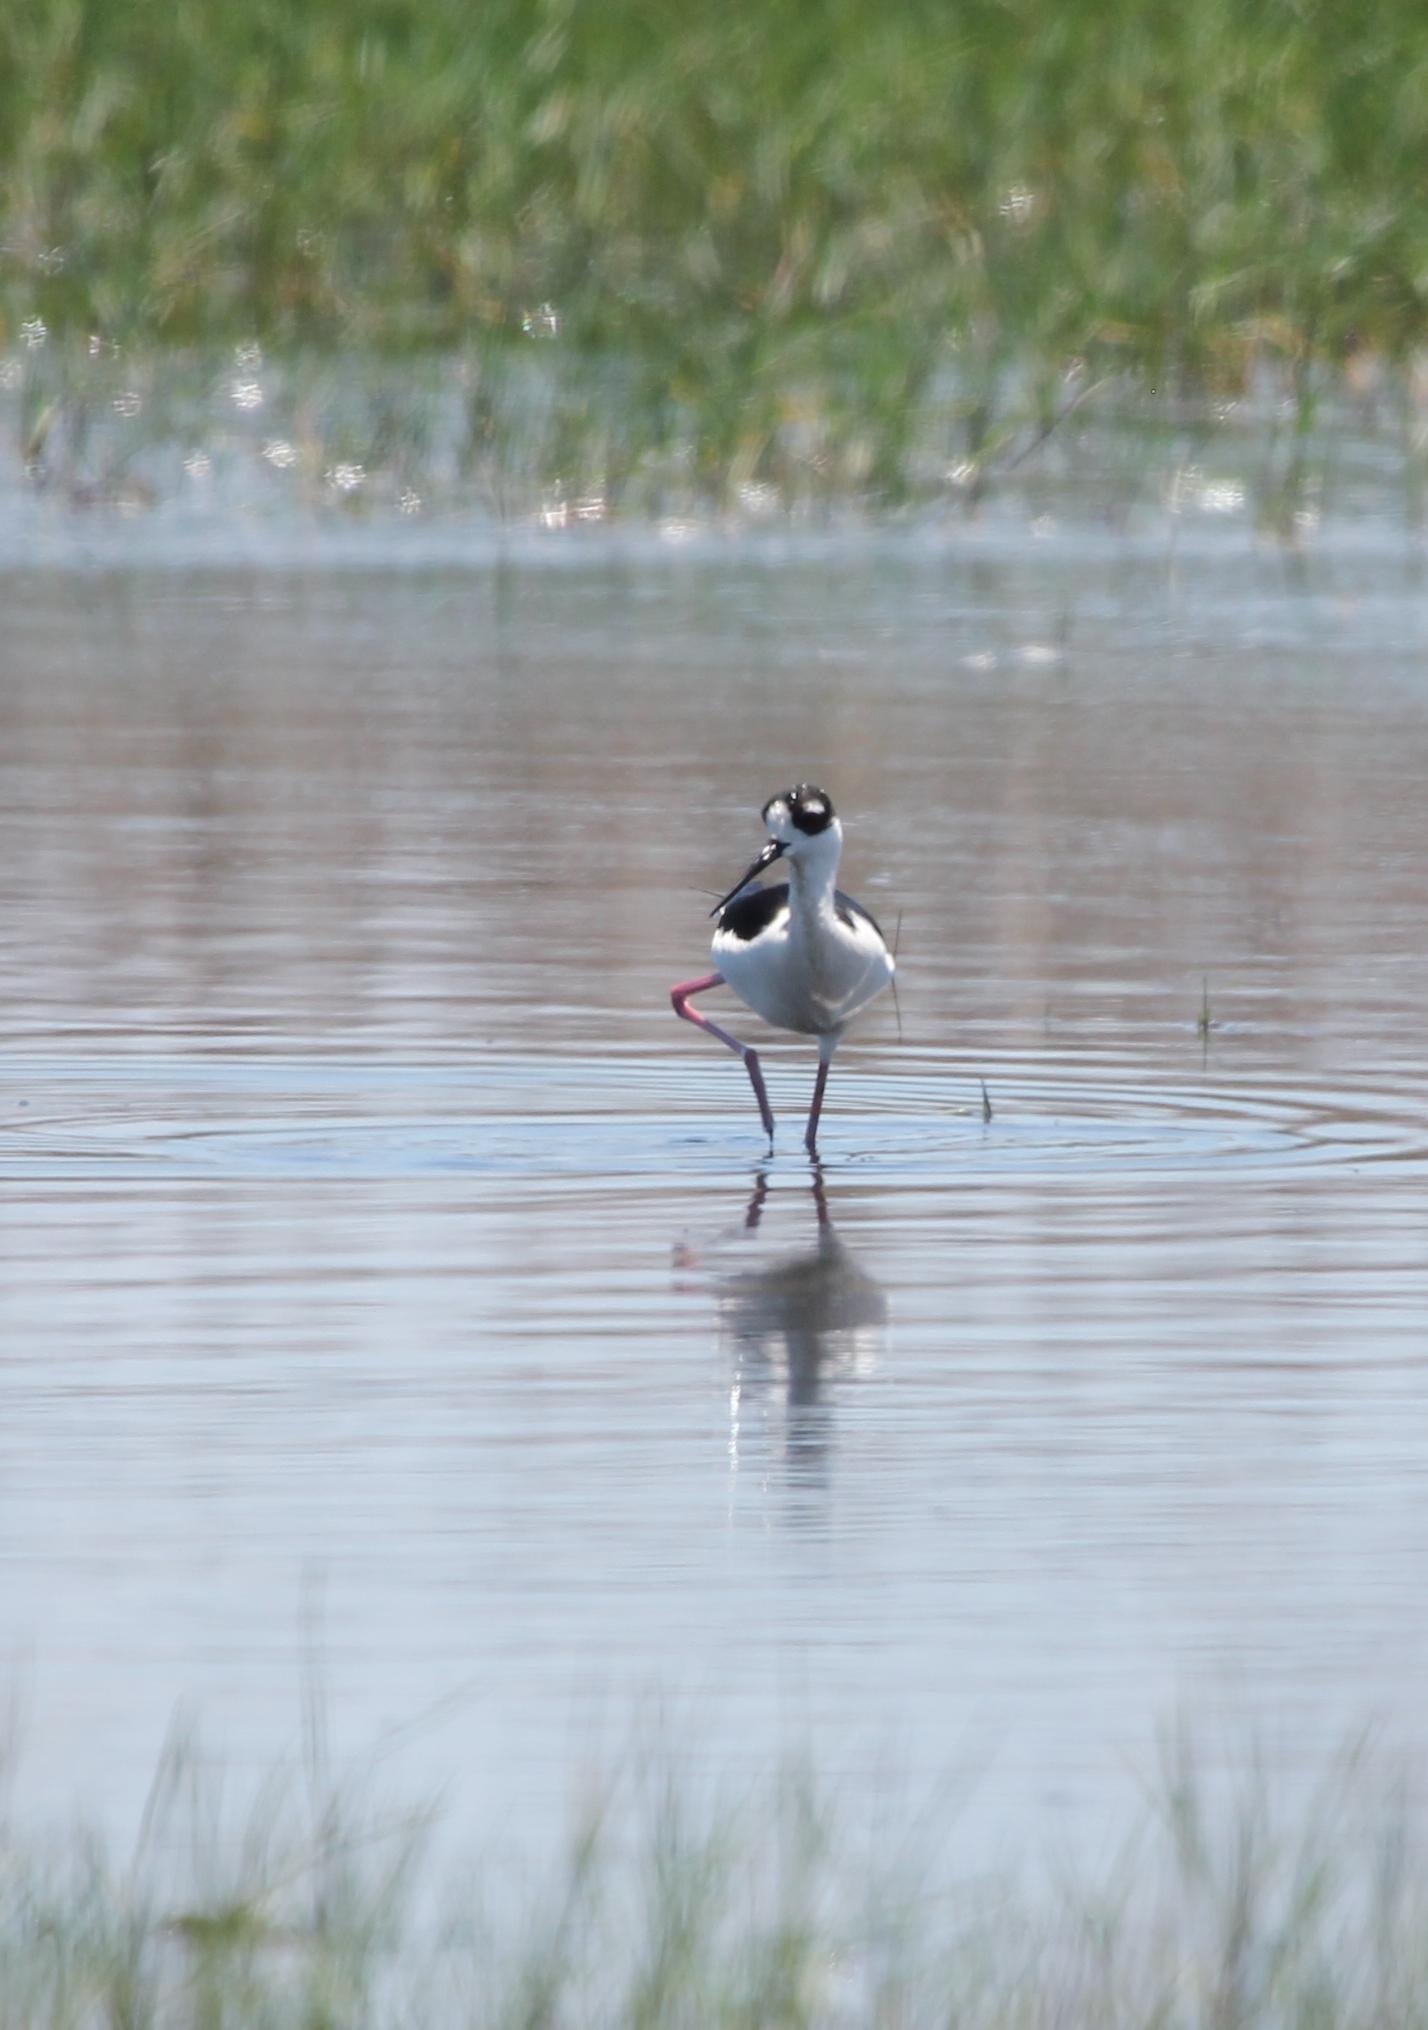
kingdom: Animalia
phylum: Chordata
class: Aves
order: Charadriiformes
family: Recurvirostridae
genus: Himantopus
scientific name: Himantopus mexicanus
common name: Black-necked stilt
